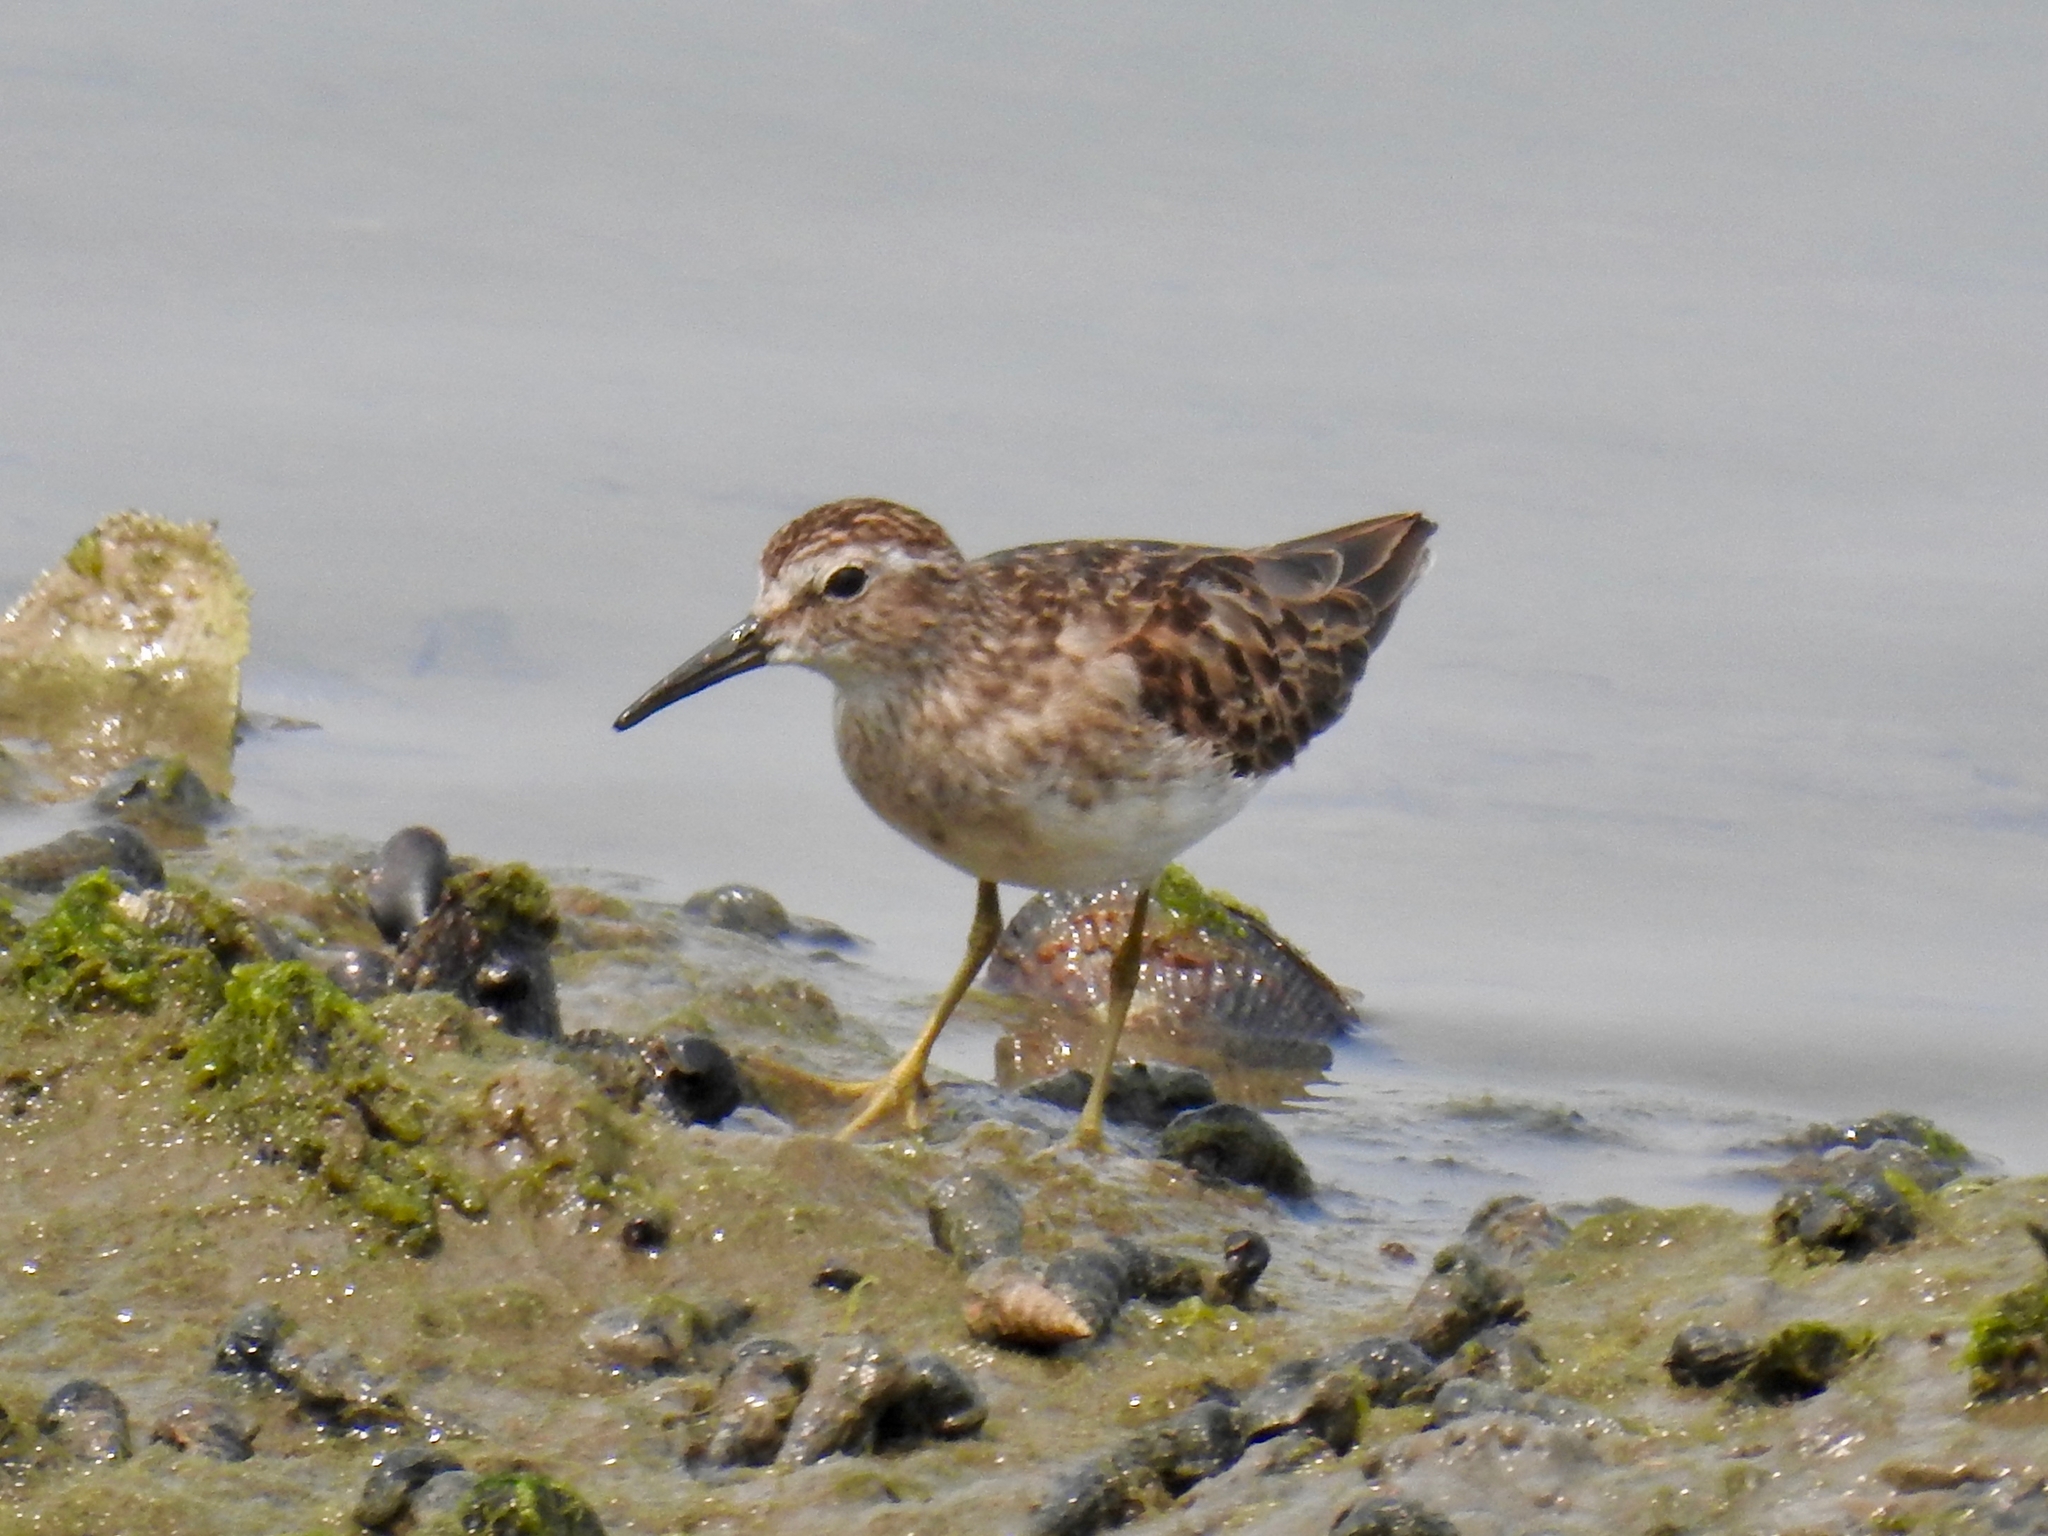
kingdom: Animalia
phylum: Chordata
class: Aves
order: Charadriiformes
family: Scolopacidae
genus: Calidris
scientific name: Calidris minutilla
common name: Least sandpiper
